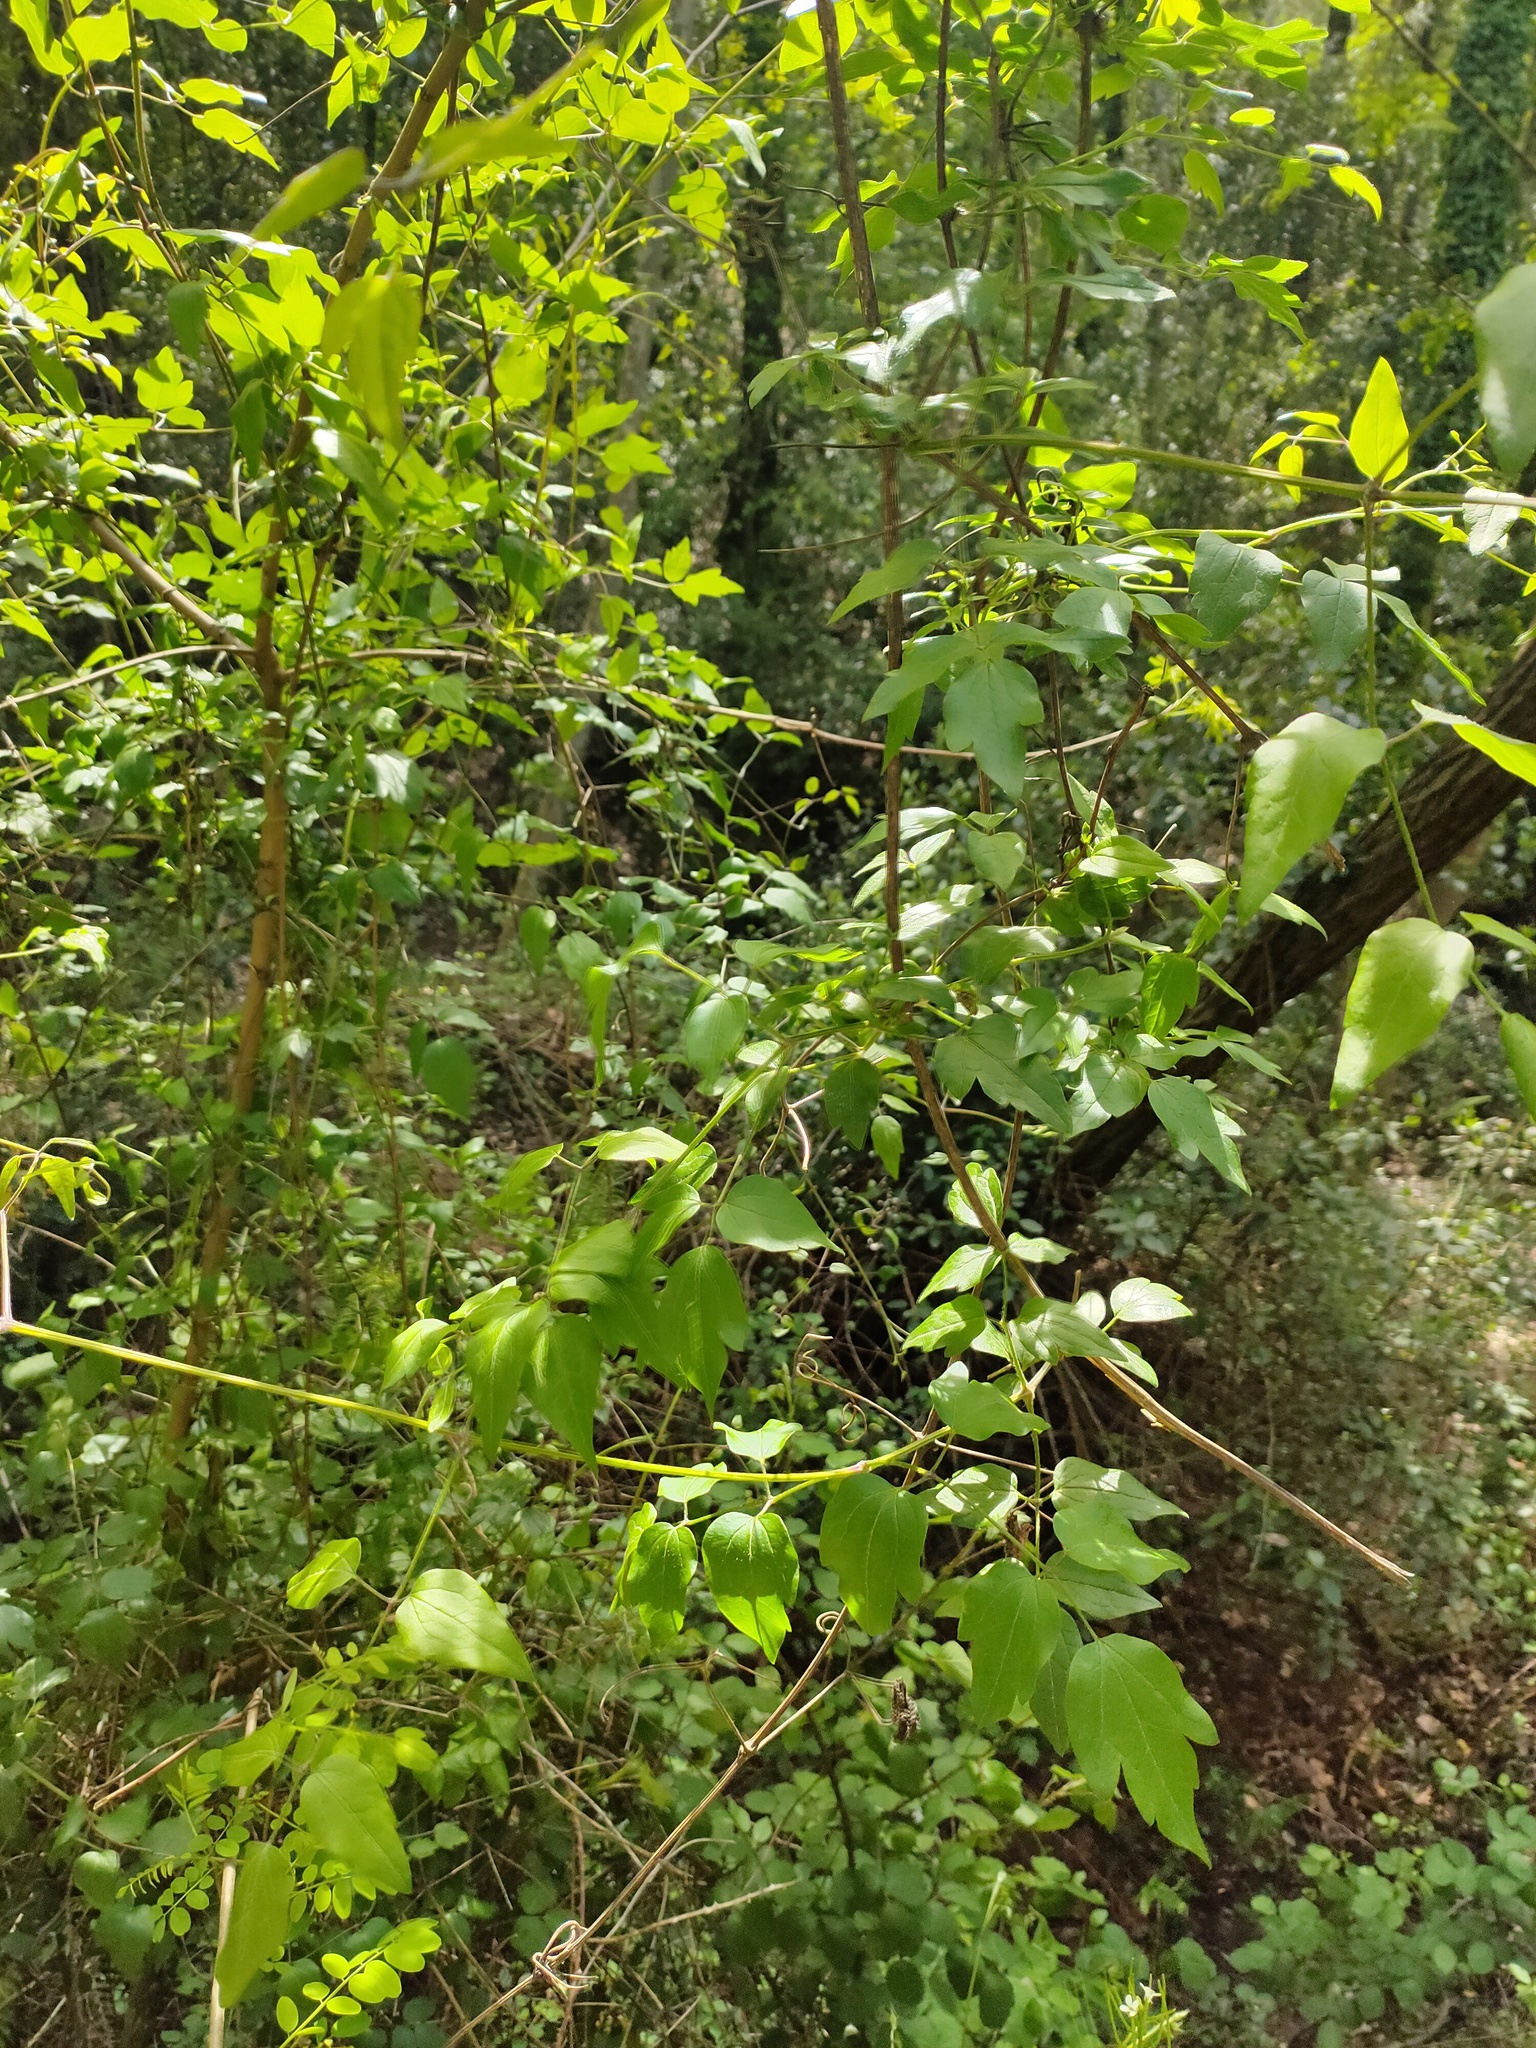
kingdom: Plantae
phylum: Tracheophyta
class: Magnoliopsida
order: Ranunculales
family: Ranunculaceae
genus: Clematis
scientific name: Clematis vitalba
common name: Evergreen clematis
